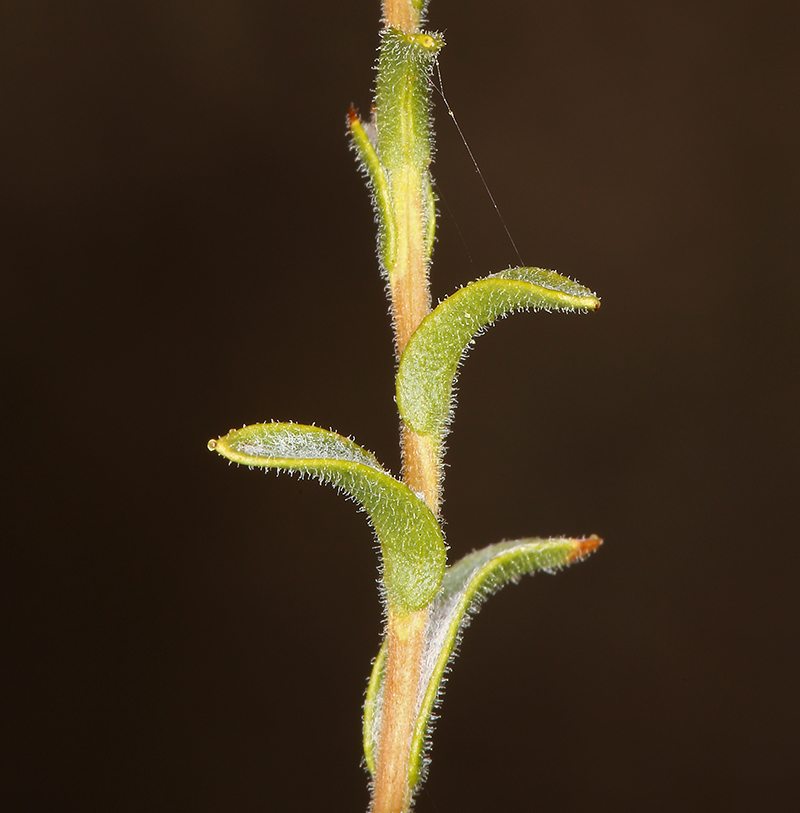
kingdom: Plantae
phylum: Tracheophyta
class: Magnoliopsida
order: Asterales
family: Asteraceae
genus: Lessingia
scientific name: Lessingia glandulifera
